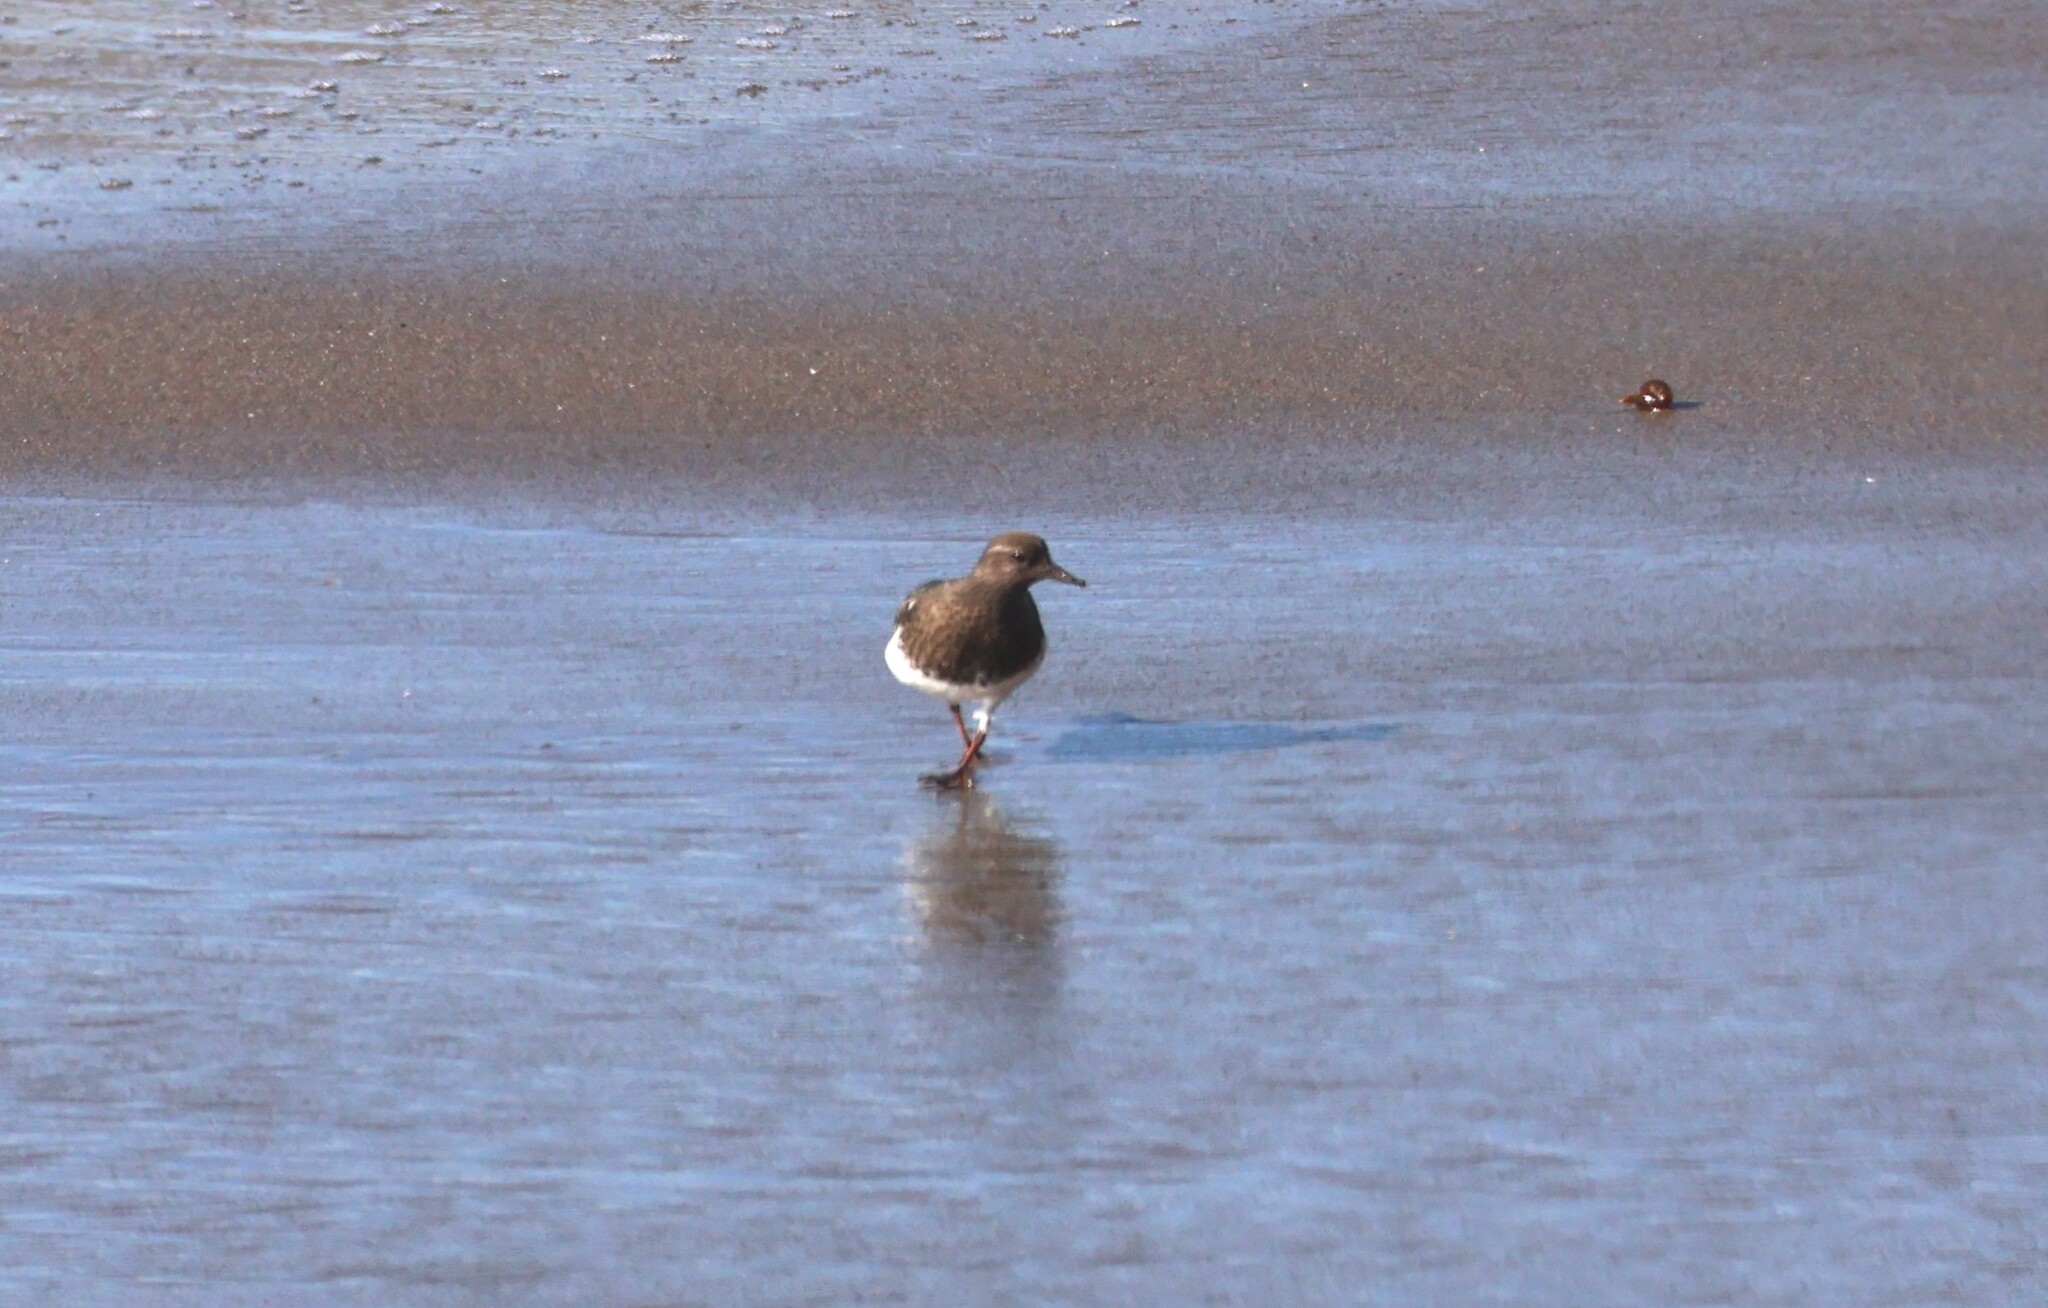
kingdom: Animalia
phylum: Chordata
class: Aves
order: Charadriiformes
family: Scolopacidae
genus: Arenaria
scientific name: Arenaria melanocephala
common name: Black turnstone
